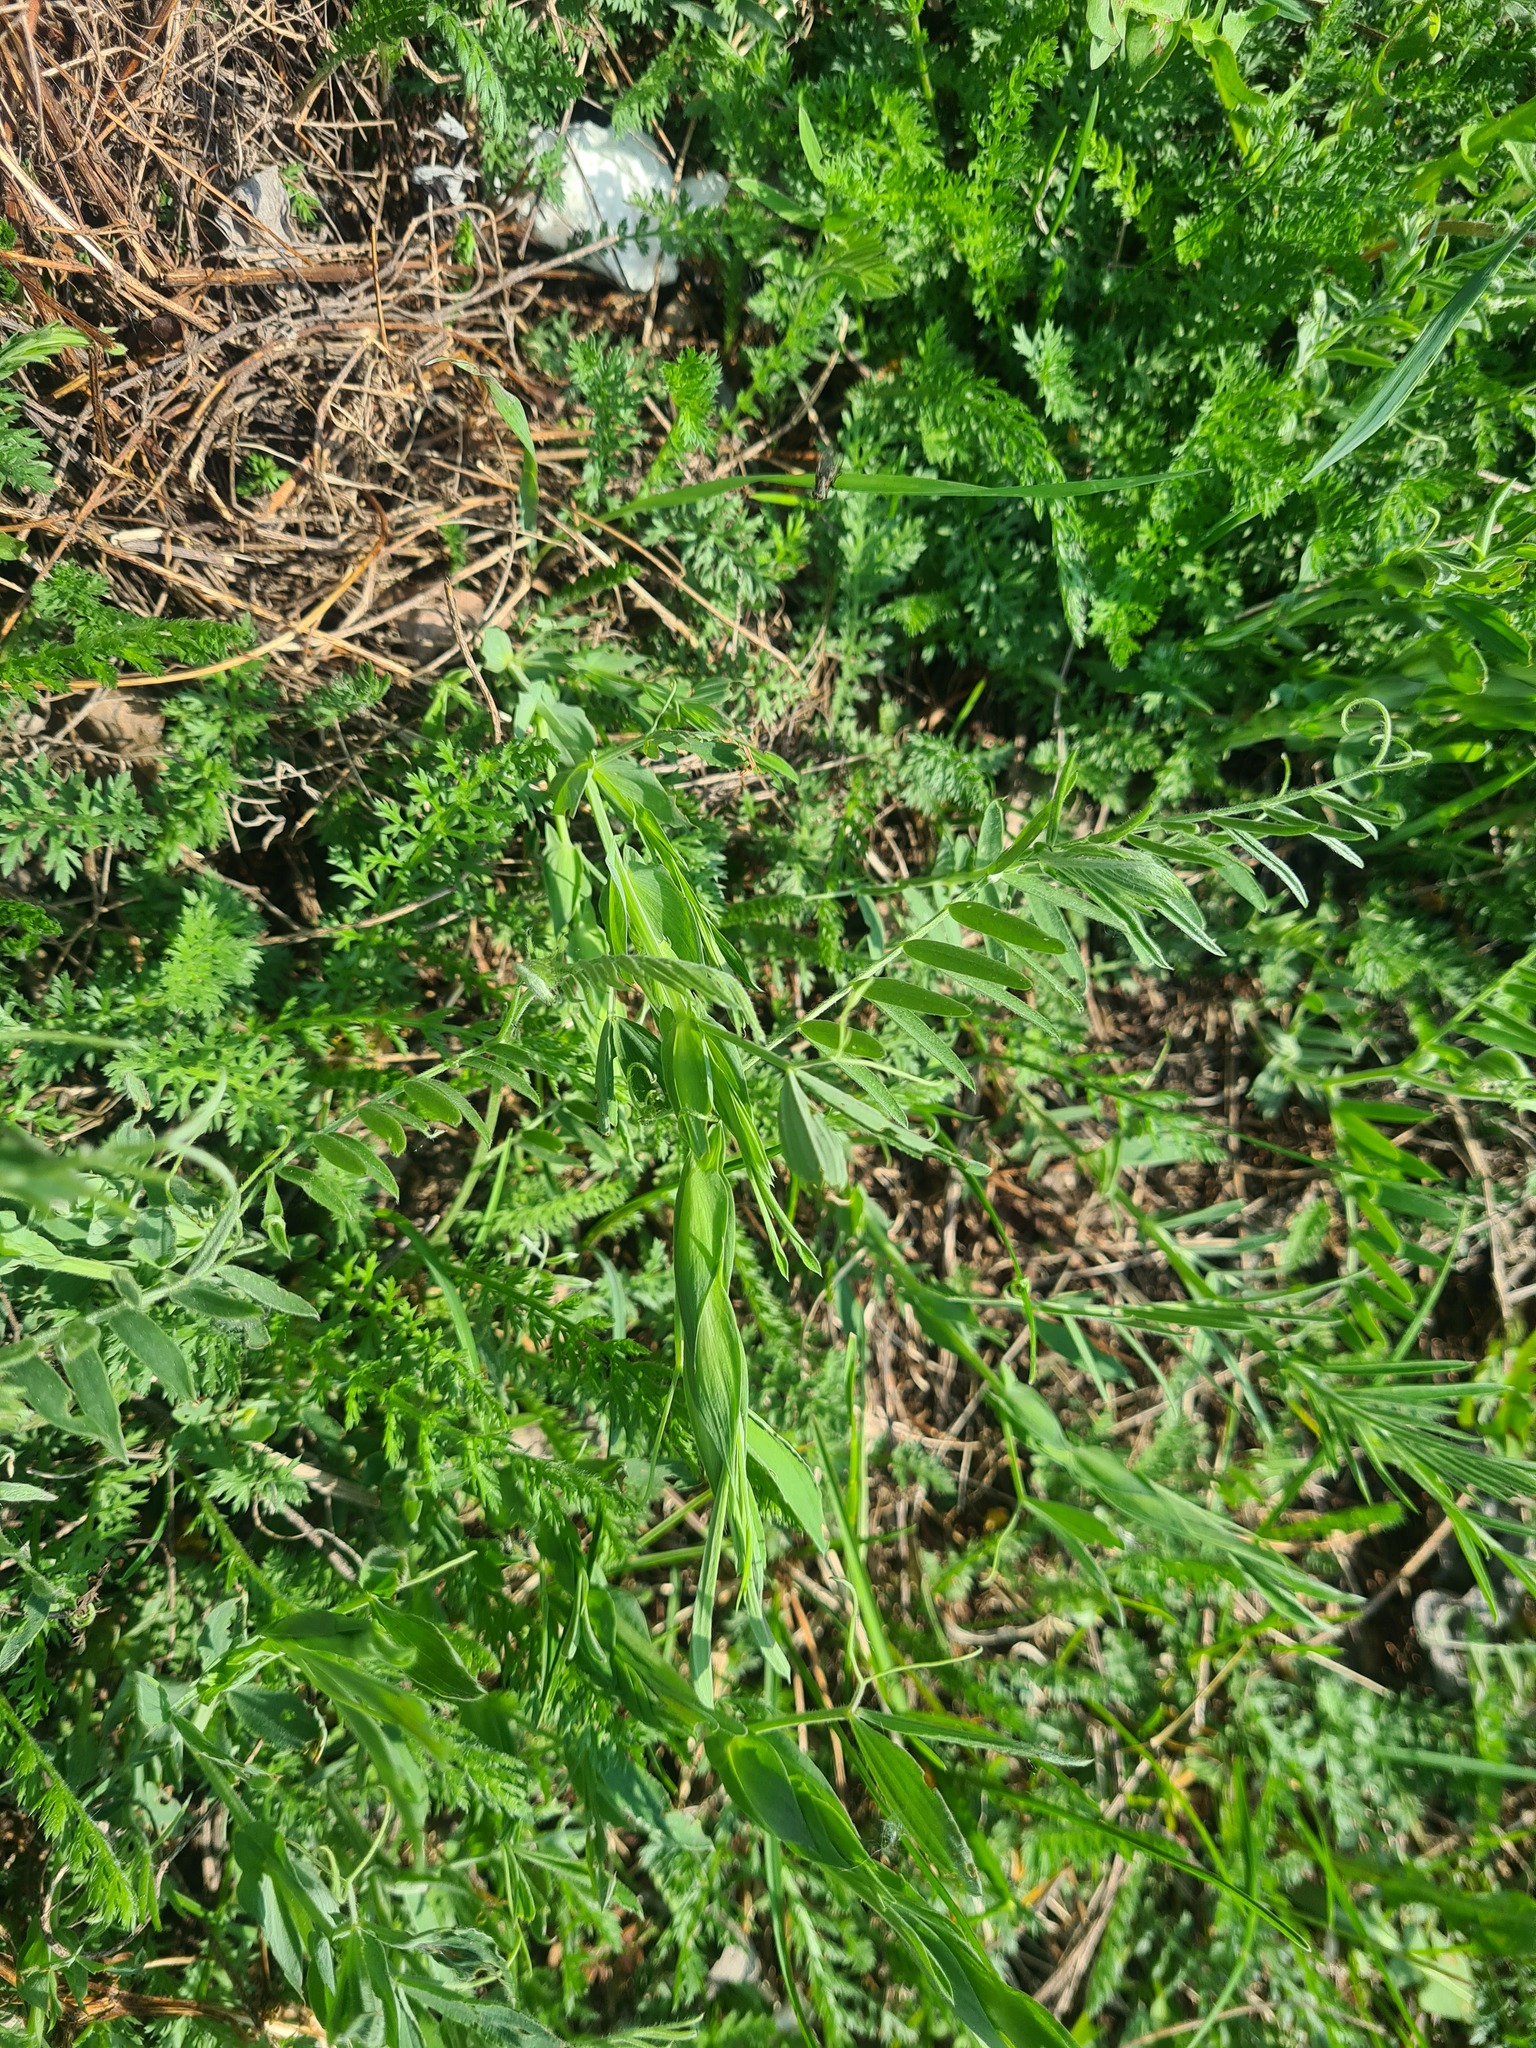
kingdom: Plantae
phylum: Tracheophyta
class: Magnoliopsida
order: Fabales
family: Fabaceae
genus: Lathyrus
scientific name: Lathyrus pratensis
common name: Meadow vetchling
